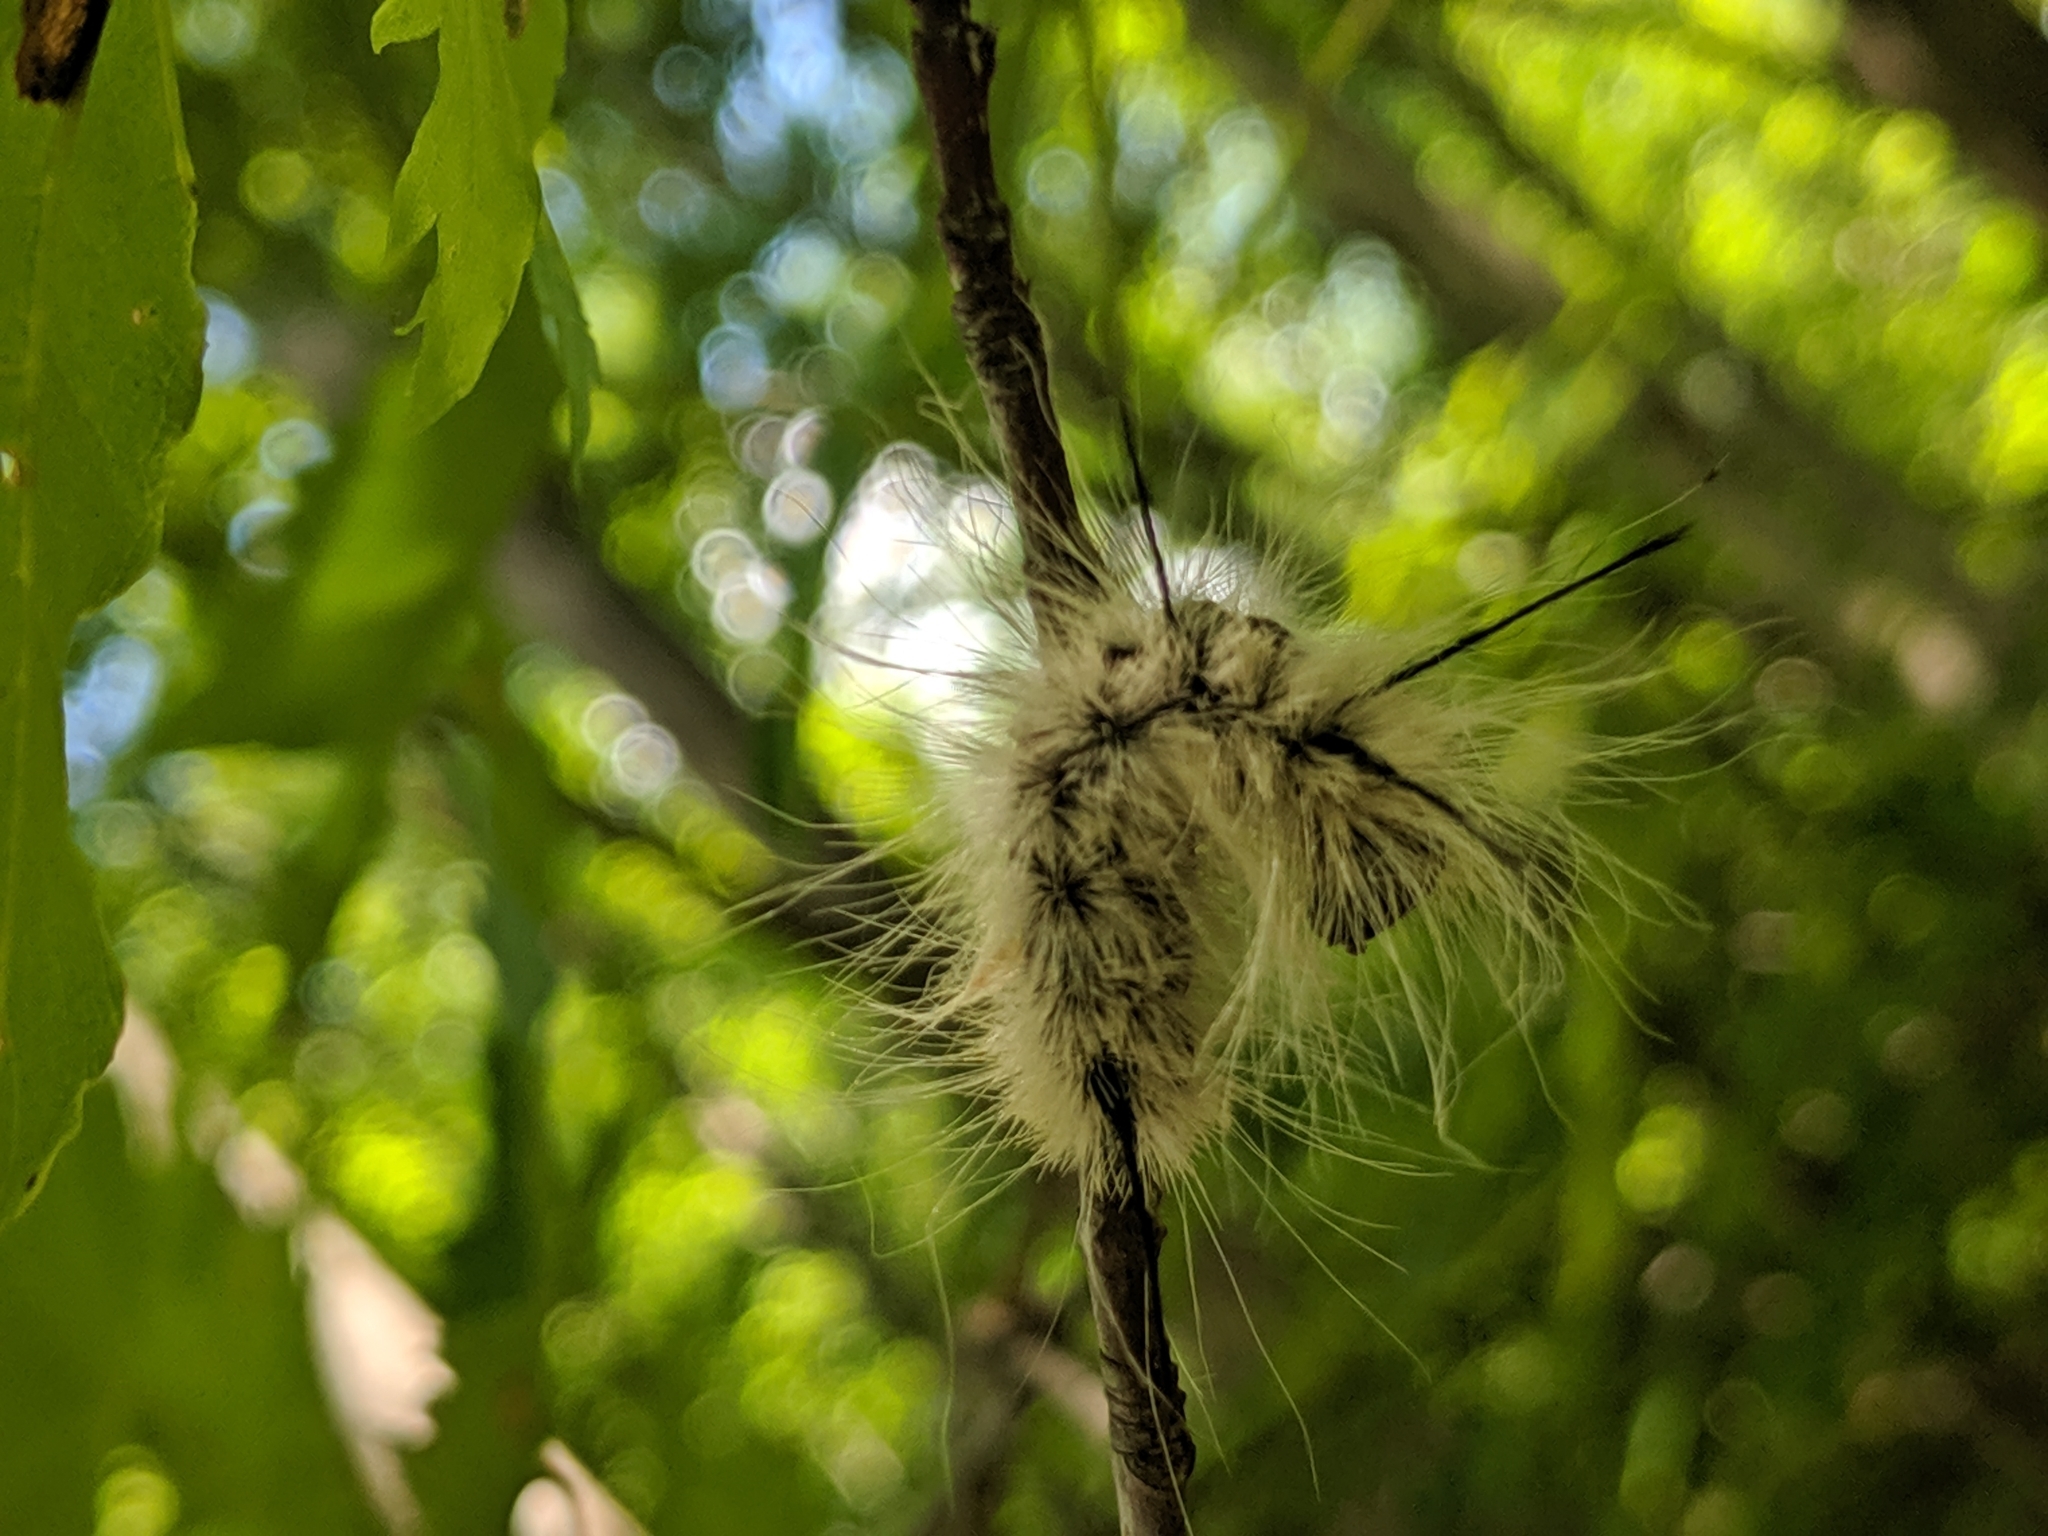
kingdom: Animalia
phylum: Arthropoda
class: Insecta
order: Lepidoptera
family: Noctuidae
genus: Acronicta
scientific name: Acronicta americana
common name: American dagger
